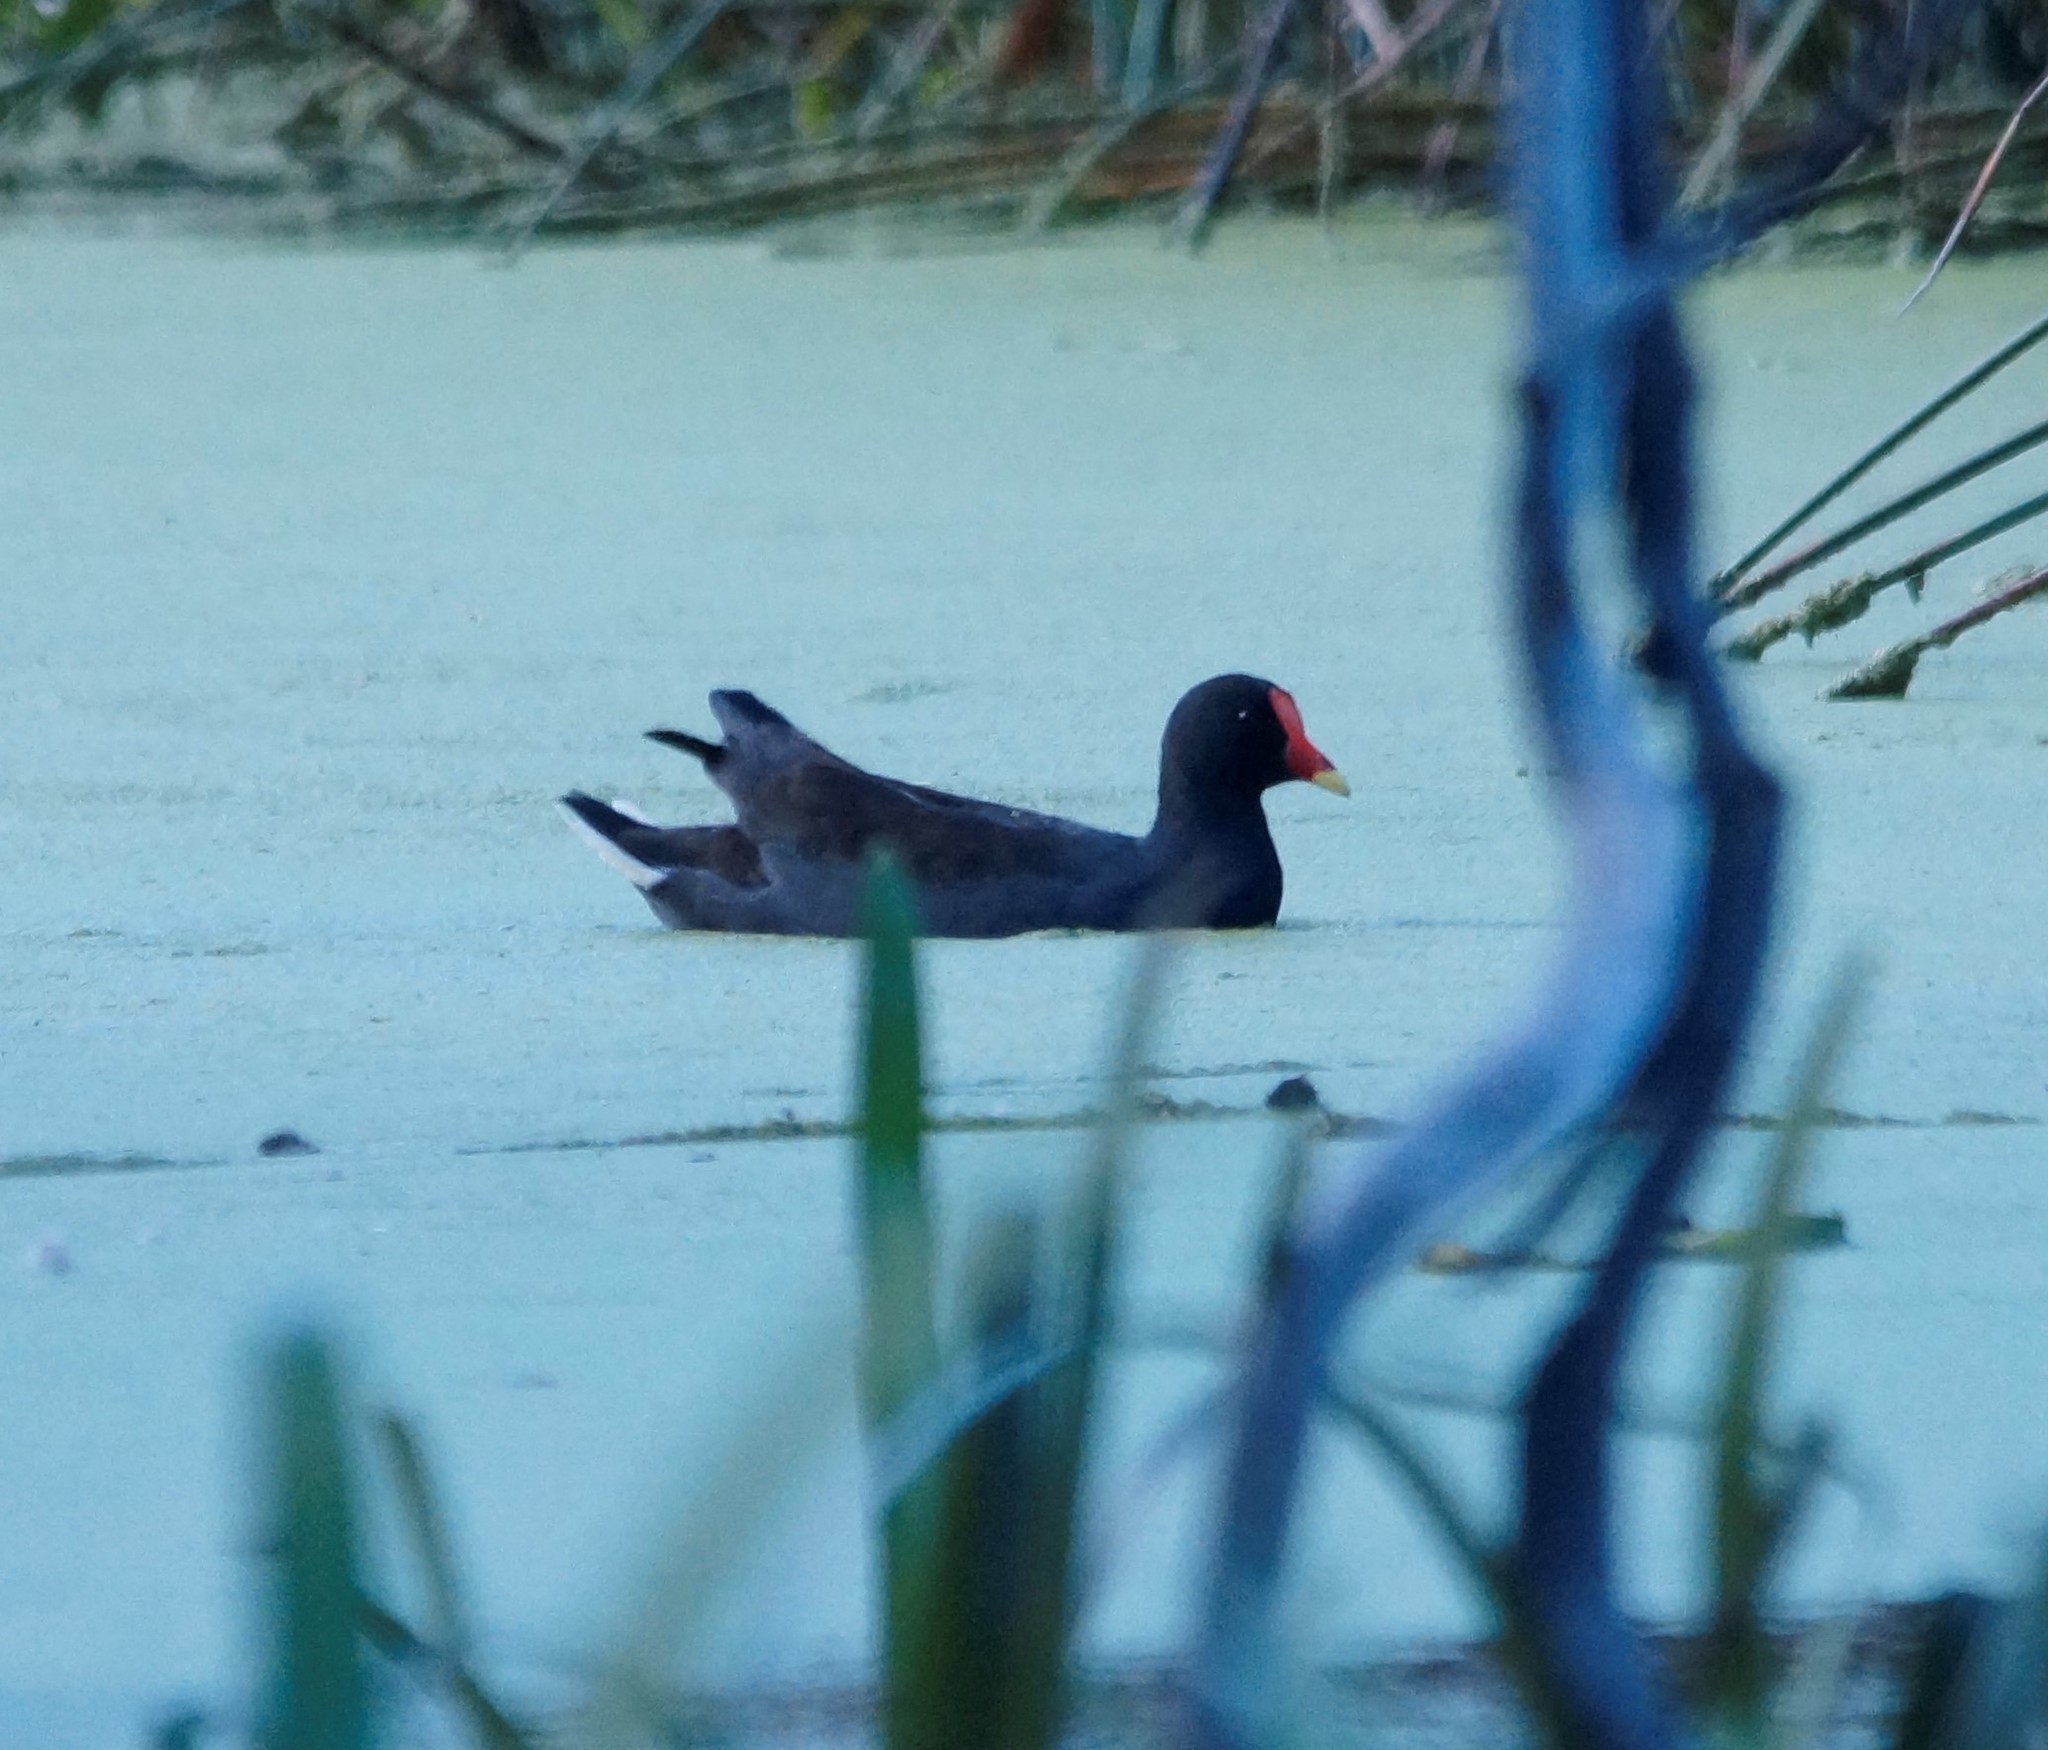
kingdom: Animalia
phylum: Chordata
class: Aves
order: Gruiformes
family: Rallidae
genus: Gallinula
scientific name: Gallinula tenebrosa
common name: Dusky moorhen
